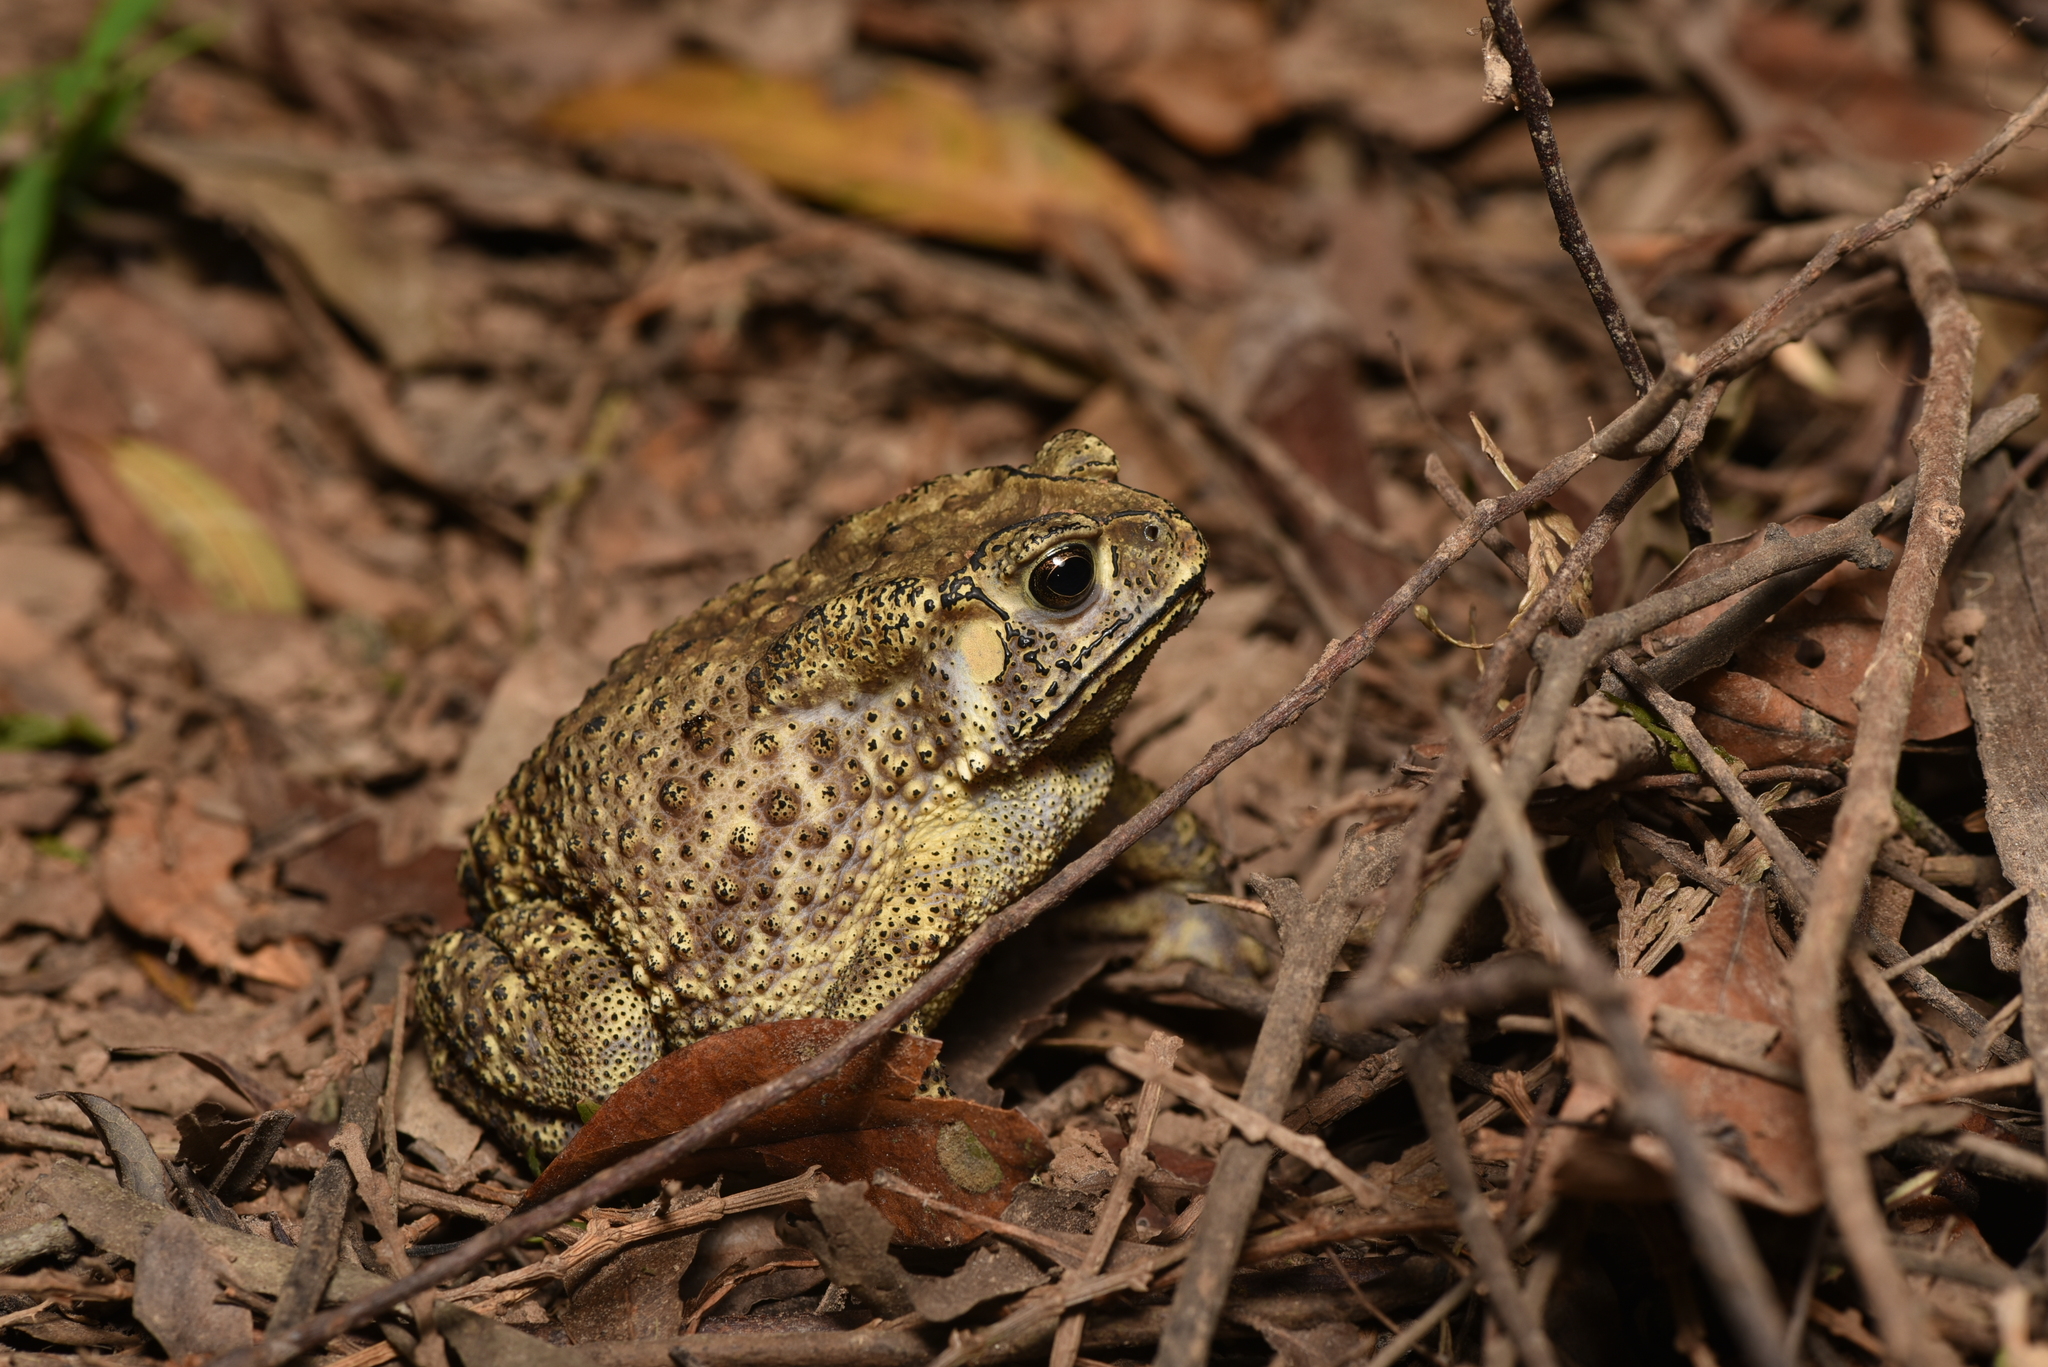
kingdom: Animalia
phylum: Chordata
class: Amphibia
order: Anura
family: Bufonidae
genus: Duttaphrynus
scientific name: Duttaphrynus melanostictus
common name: Common sunda toad
